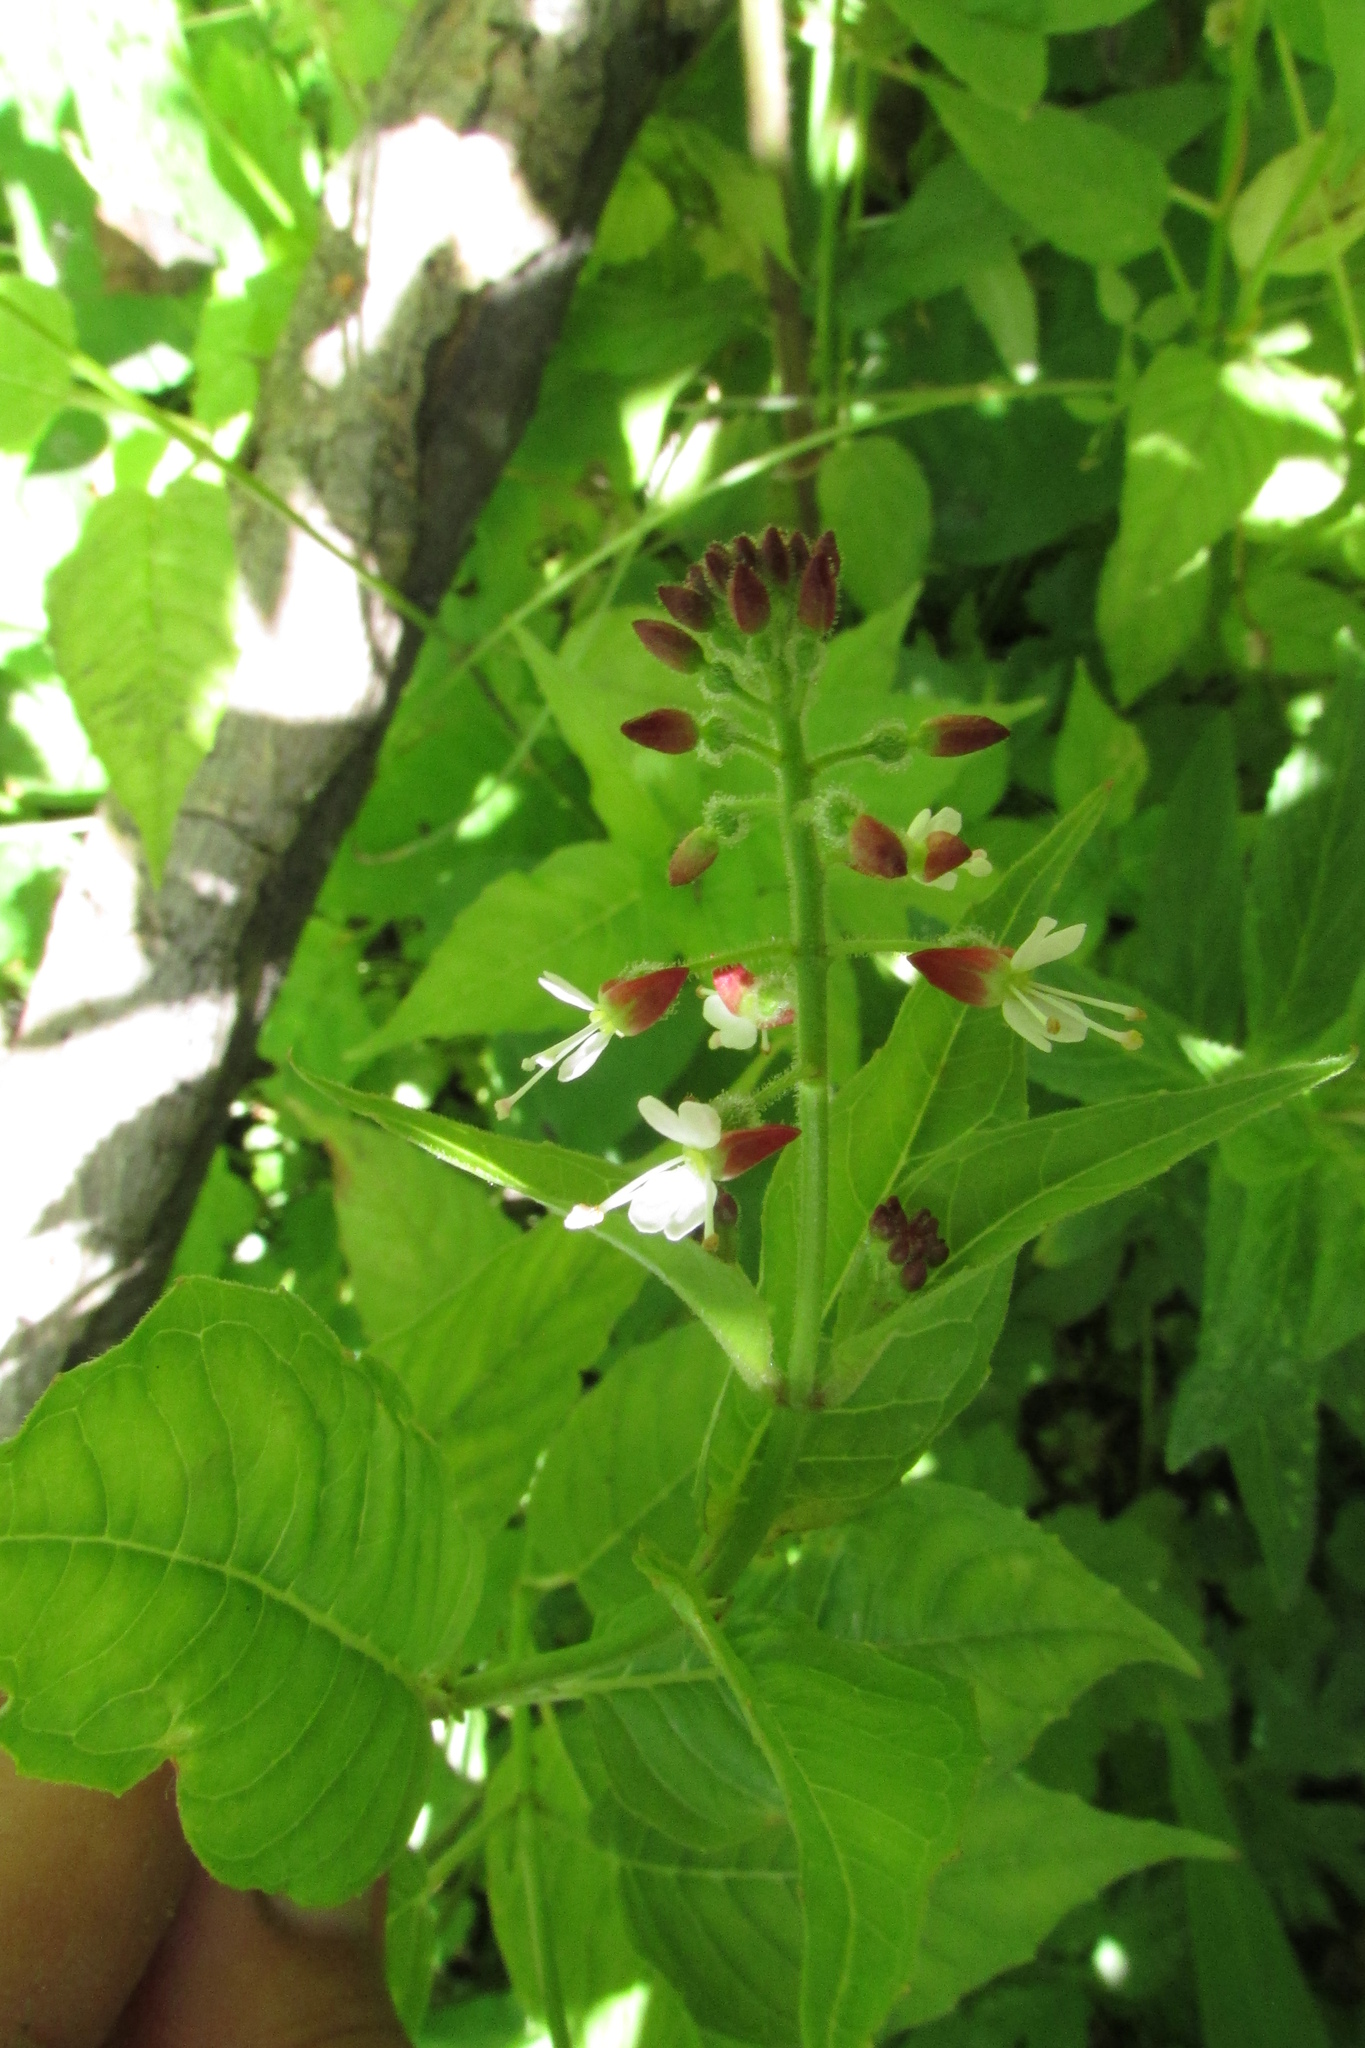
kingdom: Plantae
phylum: Tracheophyta
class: Magnoliopsida
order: Myrtales
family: Onagraceae
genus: Circaea
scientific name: Circaea lutetiana
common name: Enchanter's-nightshade
